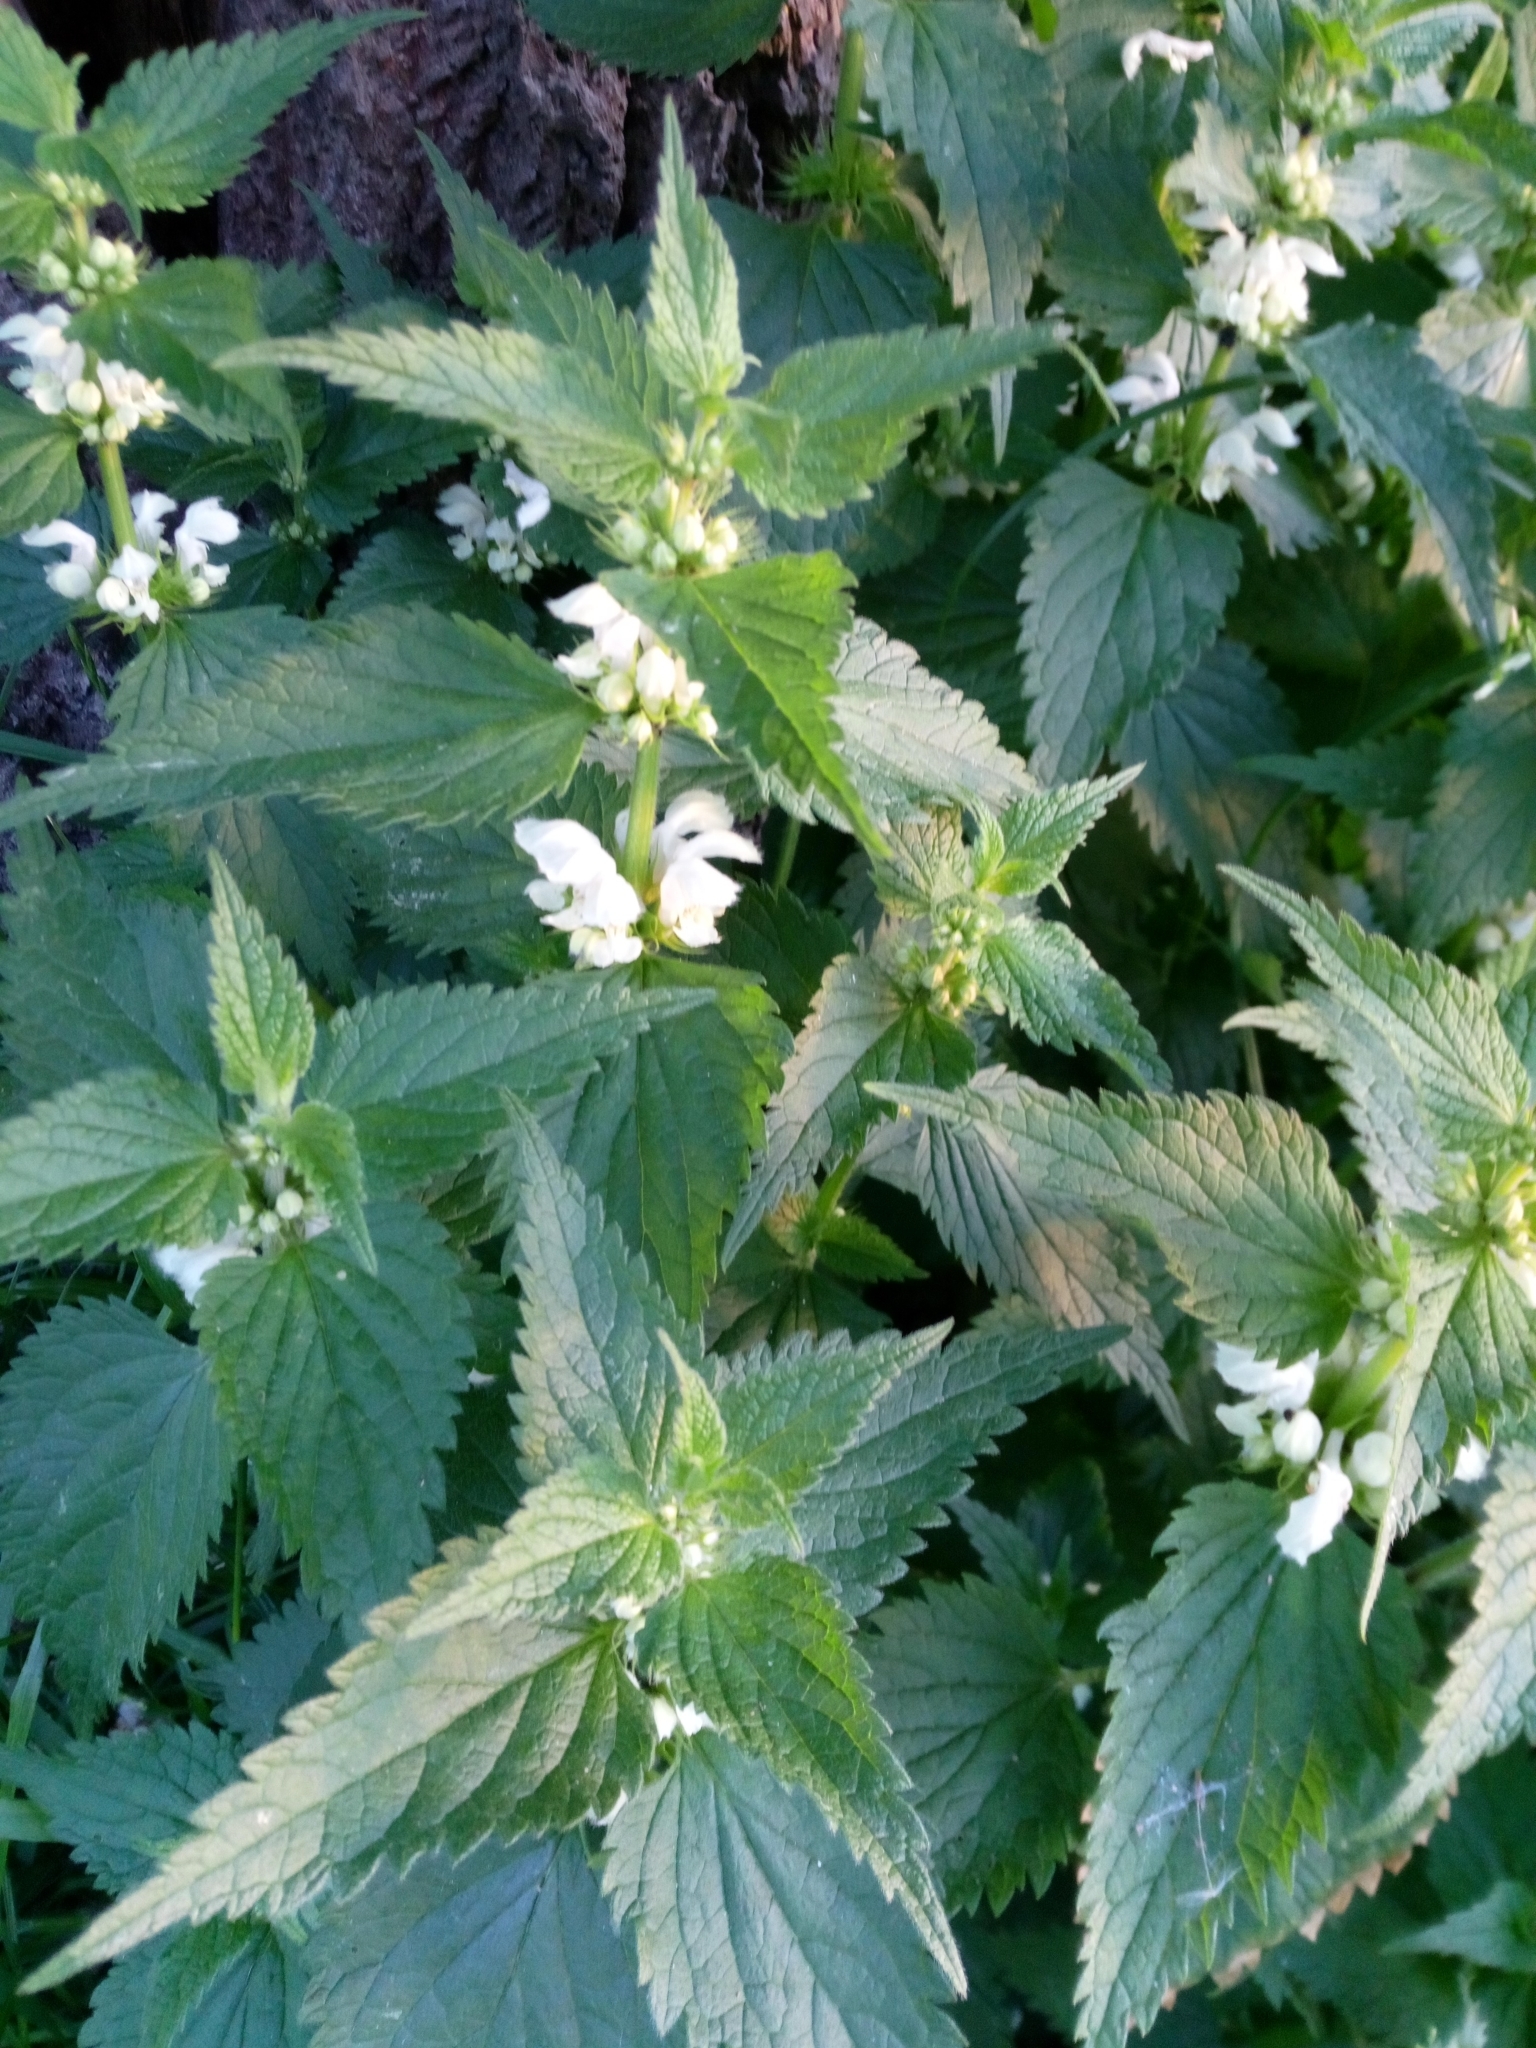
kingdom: Plantae
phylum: Tracheophyta
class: Magnoliopsida
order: Lamiales
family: Lamiaceae
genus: Lamium
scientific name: Lamium album
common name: White dead-nettle
